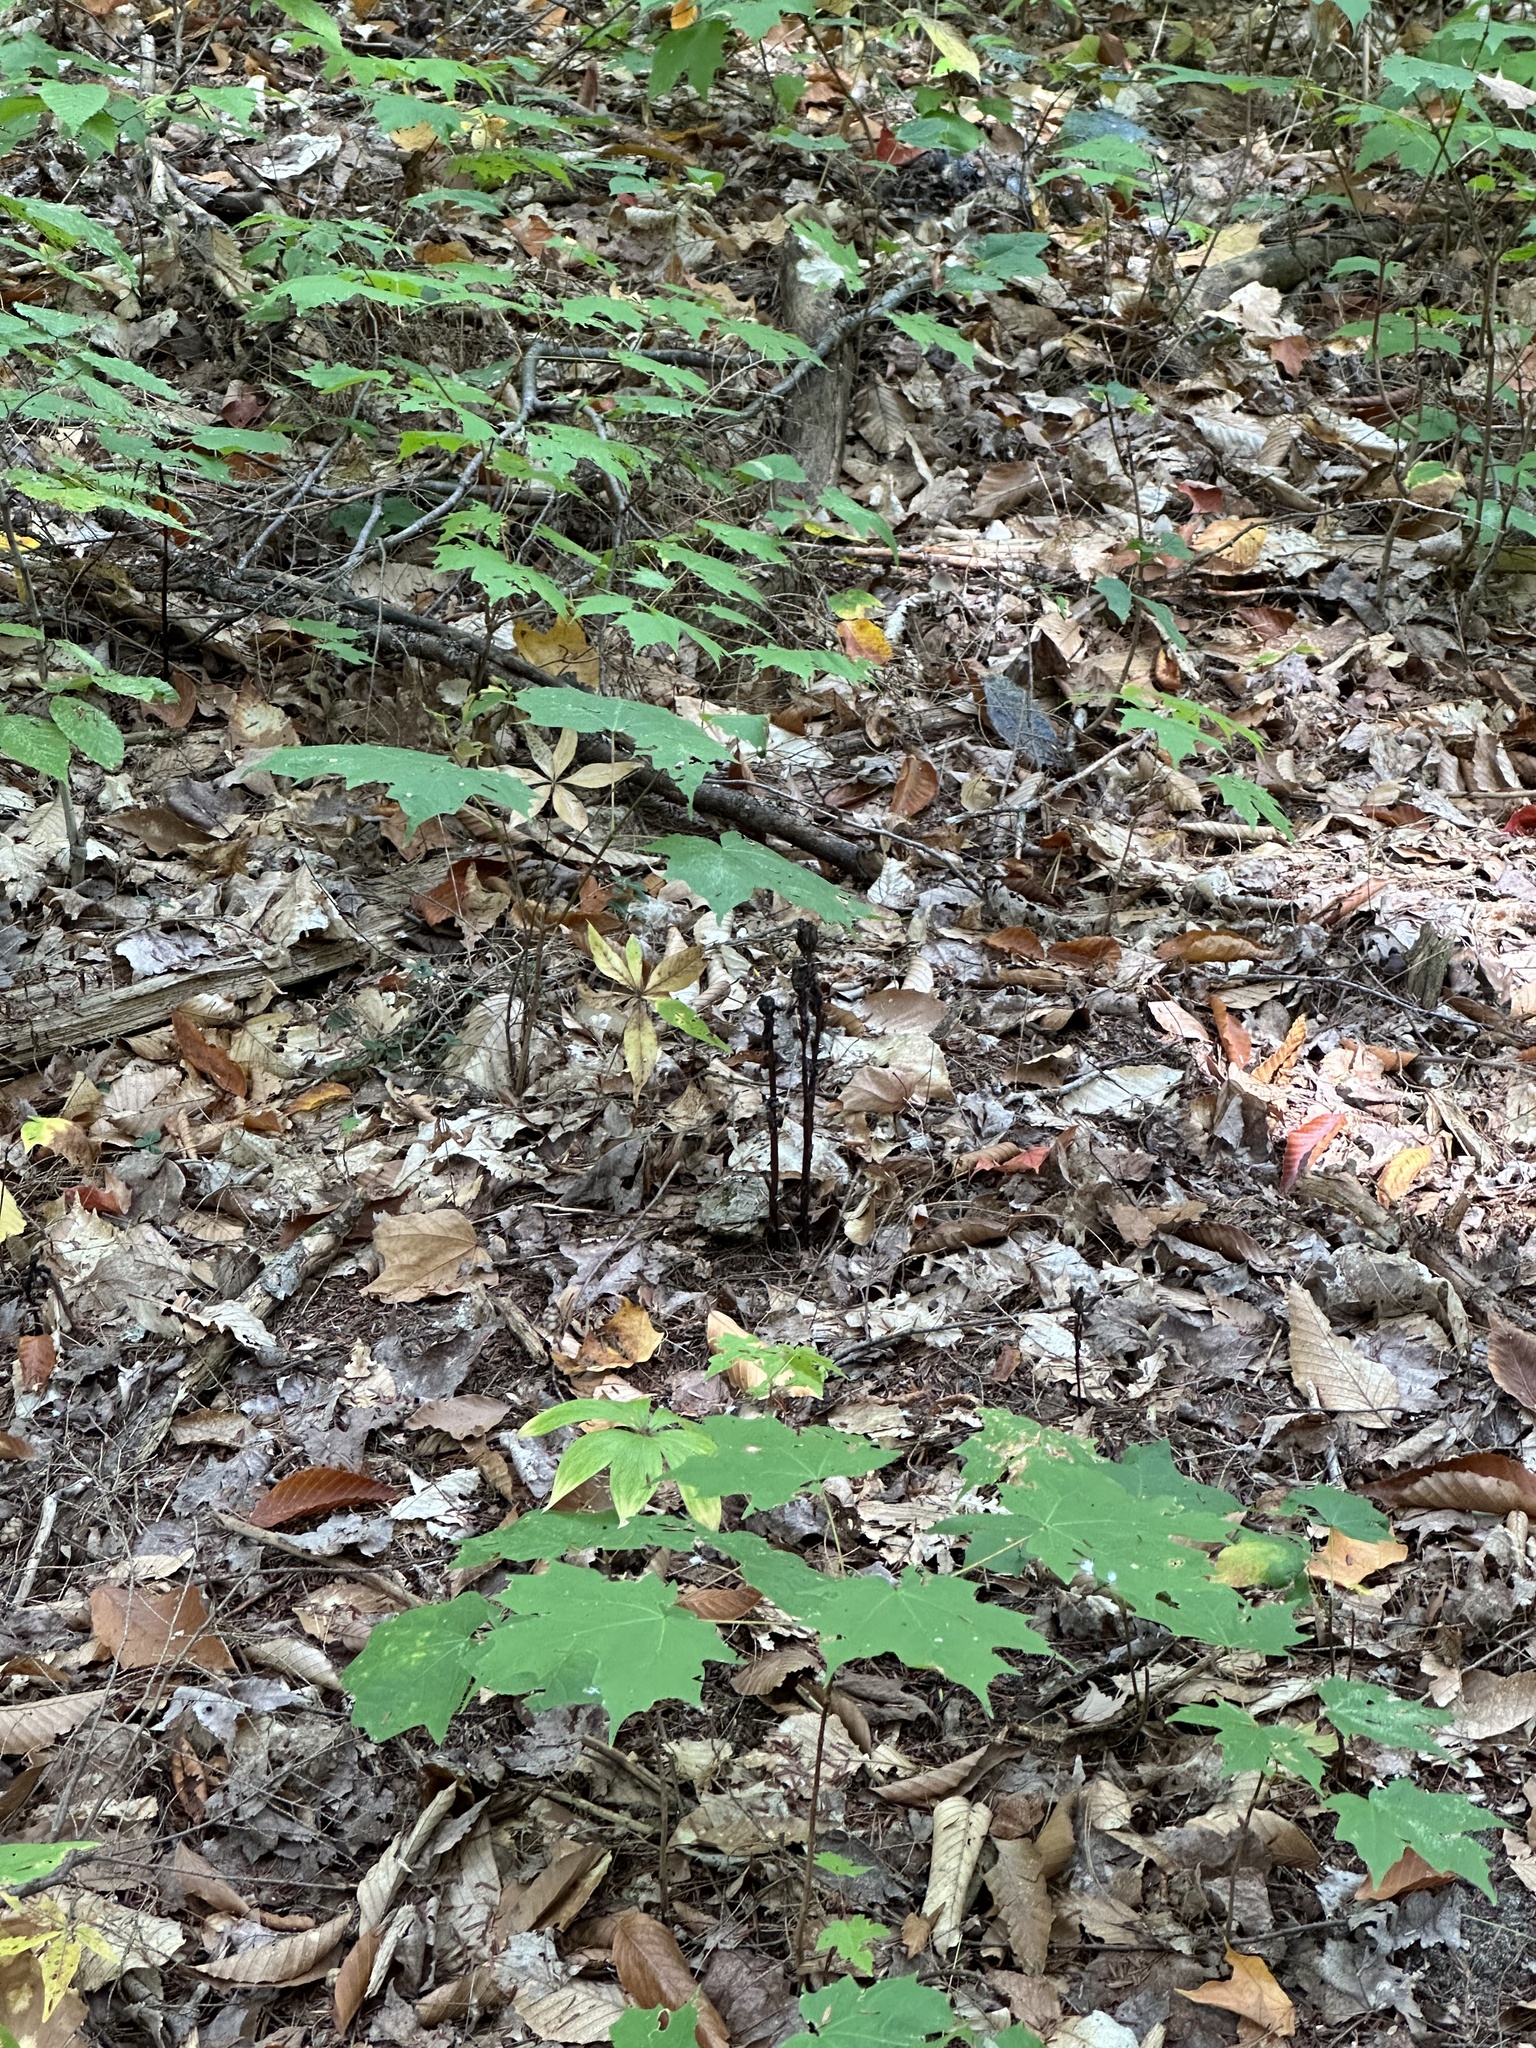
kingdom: Plantae
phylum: Tracheophyta
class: Magnoliopsida
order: Ericales
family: Ericaceae
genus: Monotropa
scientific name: Monotropa uniflora
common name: Convulsion root
